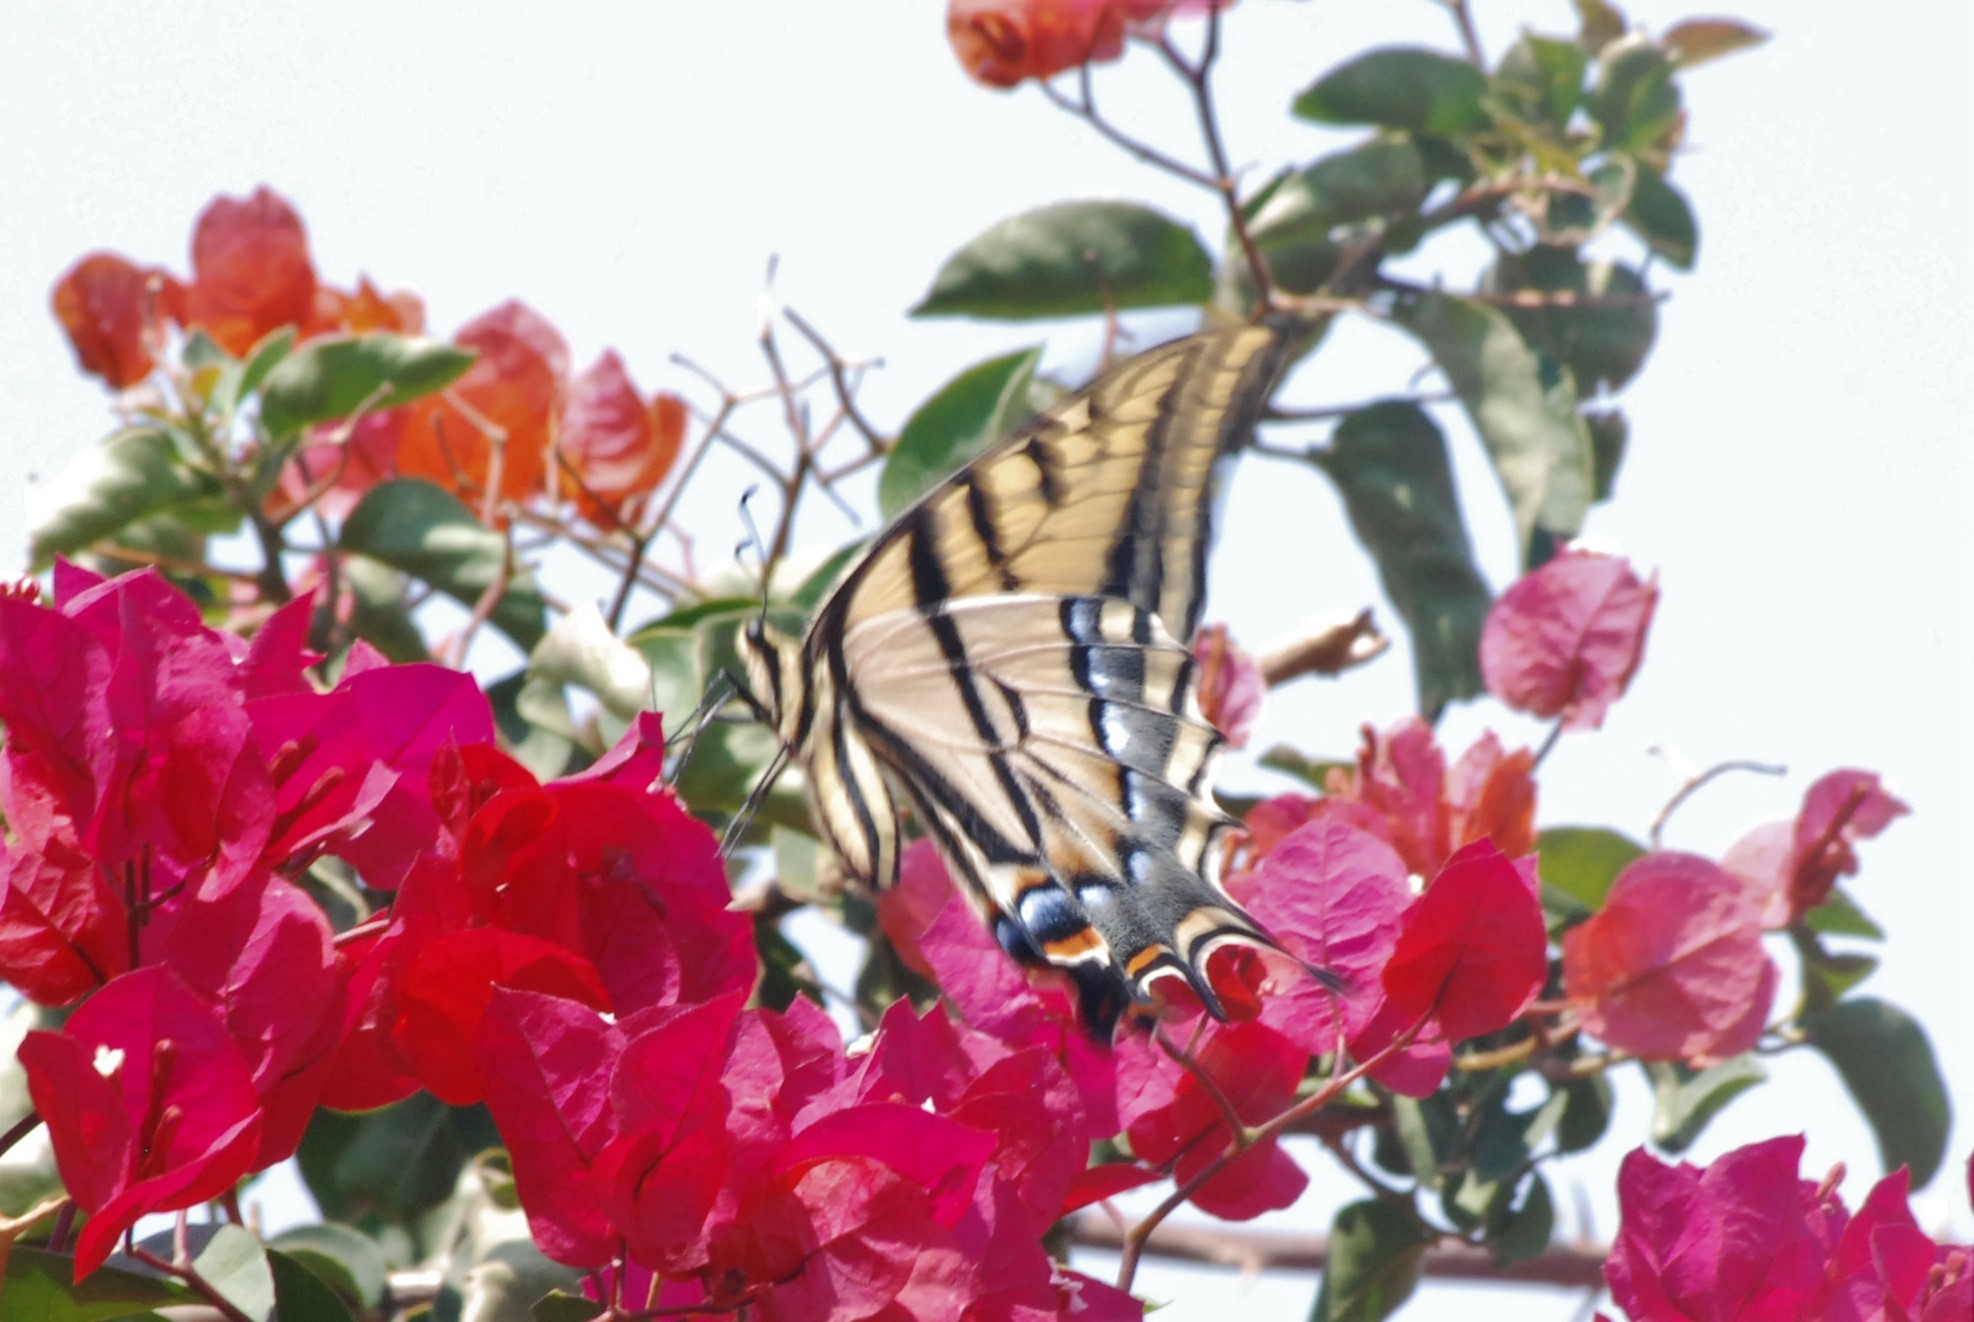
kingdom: Animalia
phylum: Arthropoda
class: Insecta
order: Lepidoptera
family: Papilionidae
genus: Papilio
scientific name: Papilio multicaudata
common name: Two-tailed tiger swallowtail
